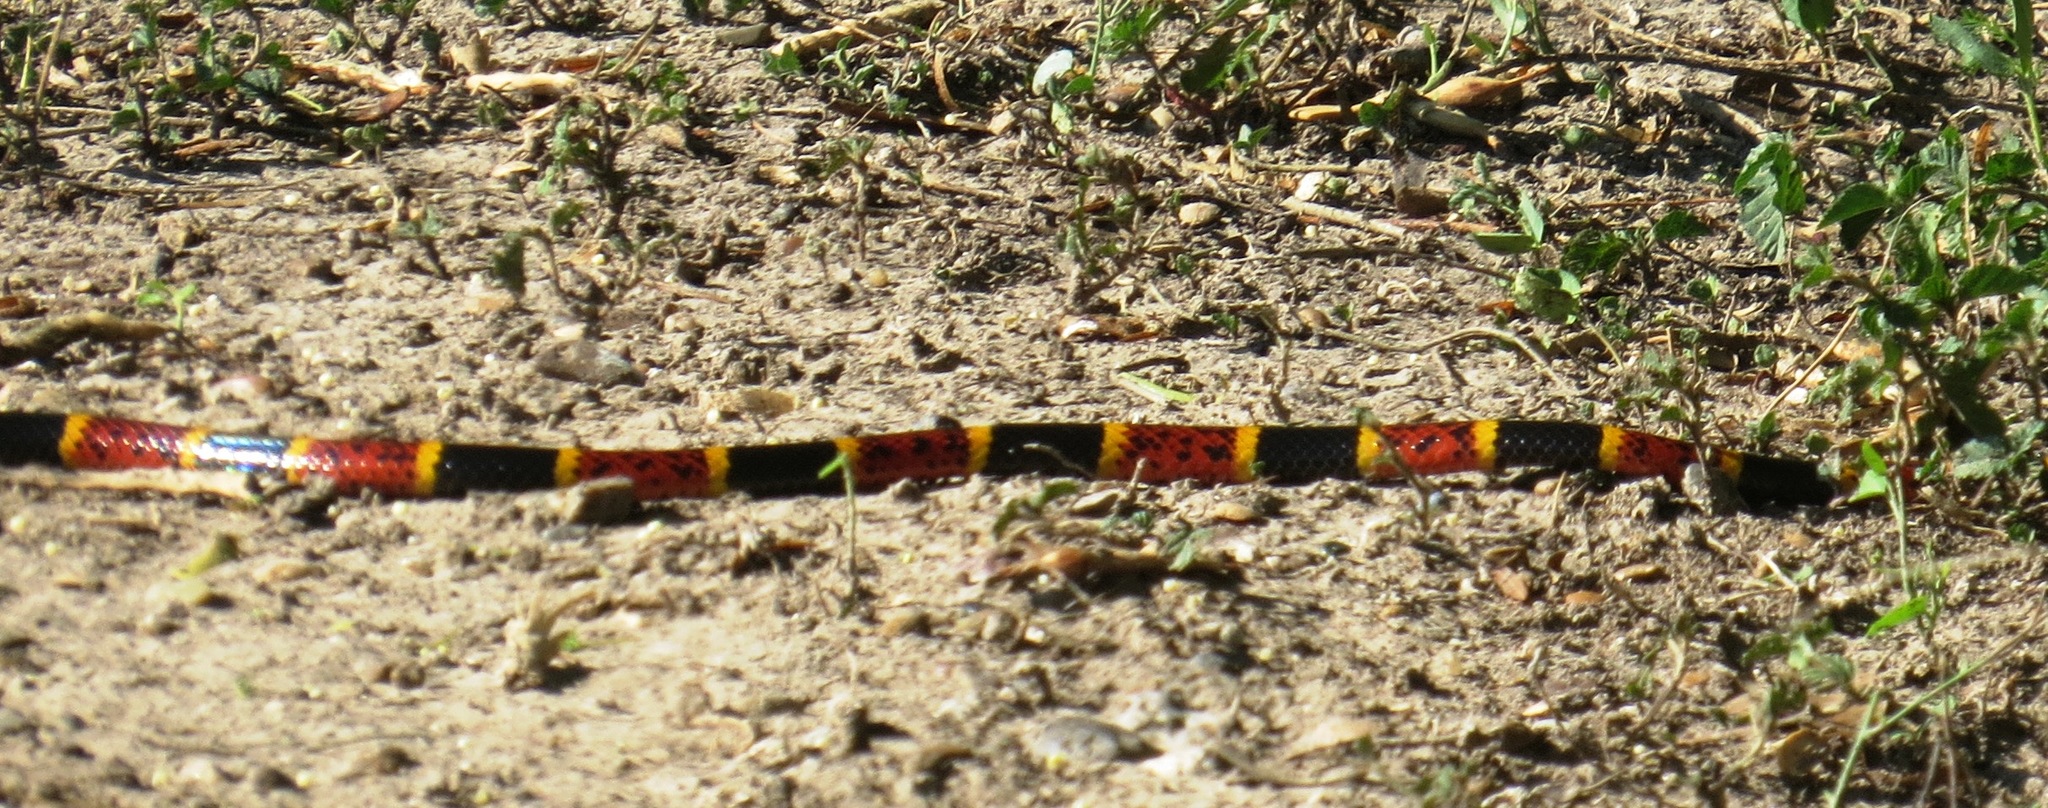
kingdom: Animalia
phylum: Chordata
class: Squamata
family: Elapidae
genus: Micrurus
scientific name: Micrurus tener
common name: Texas coral snake
